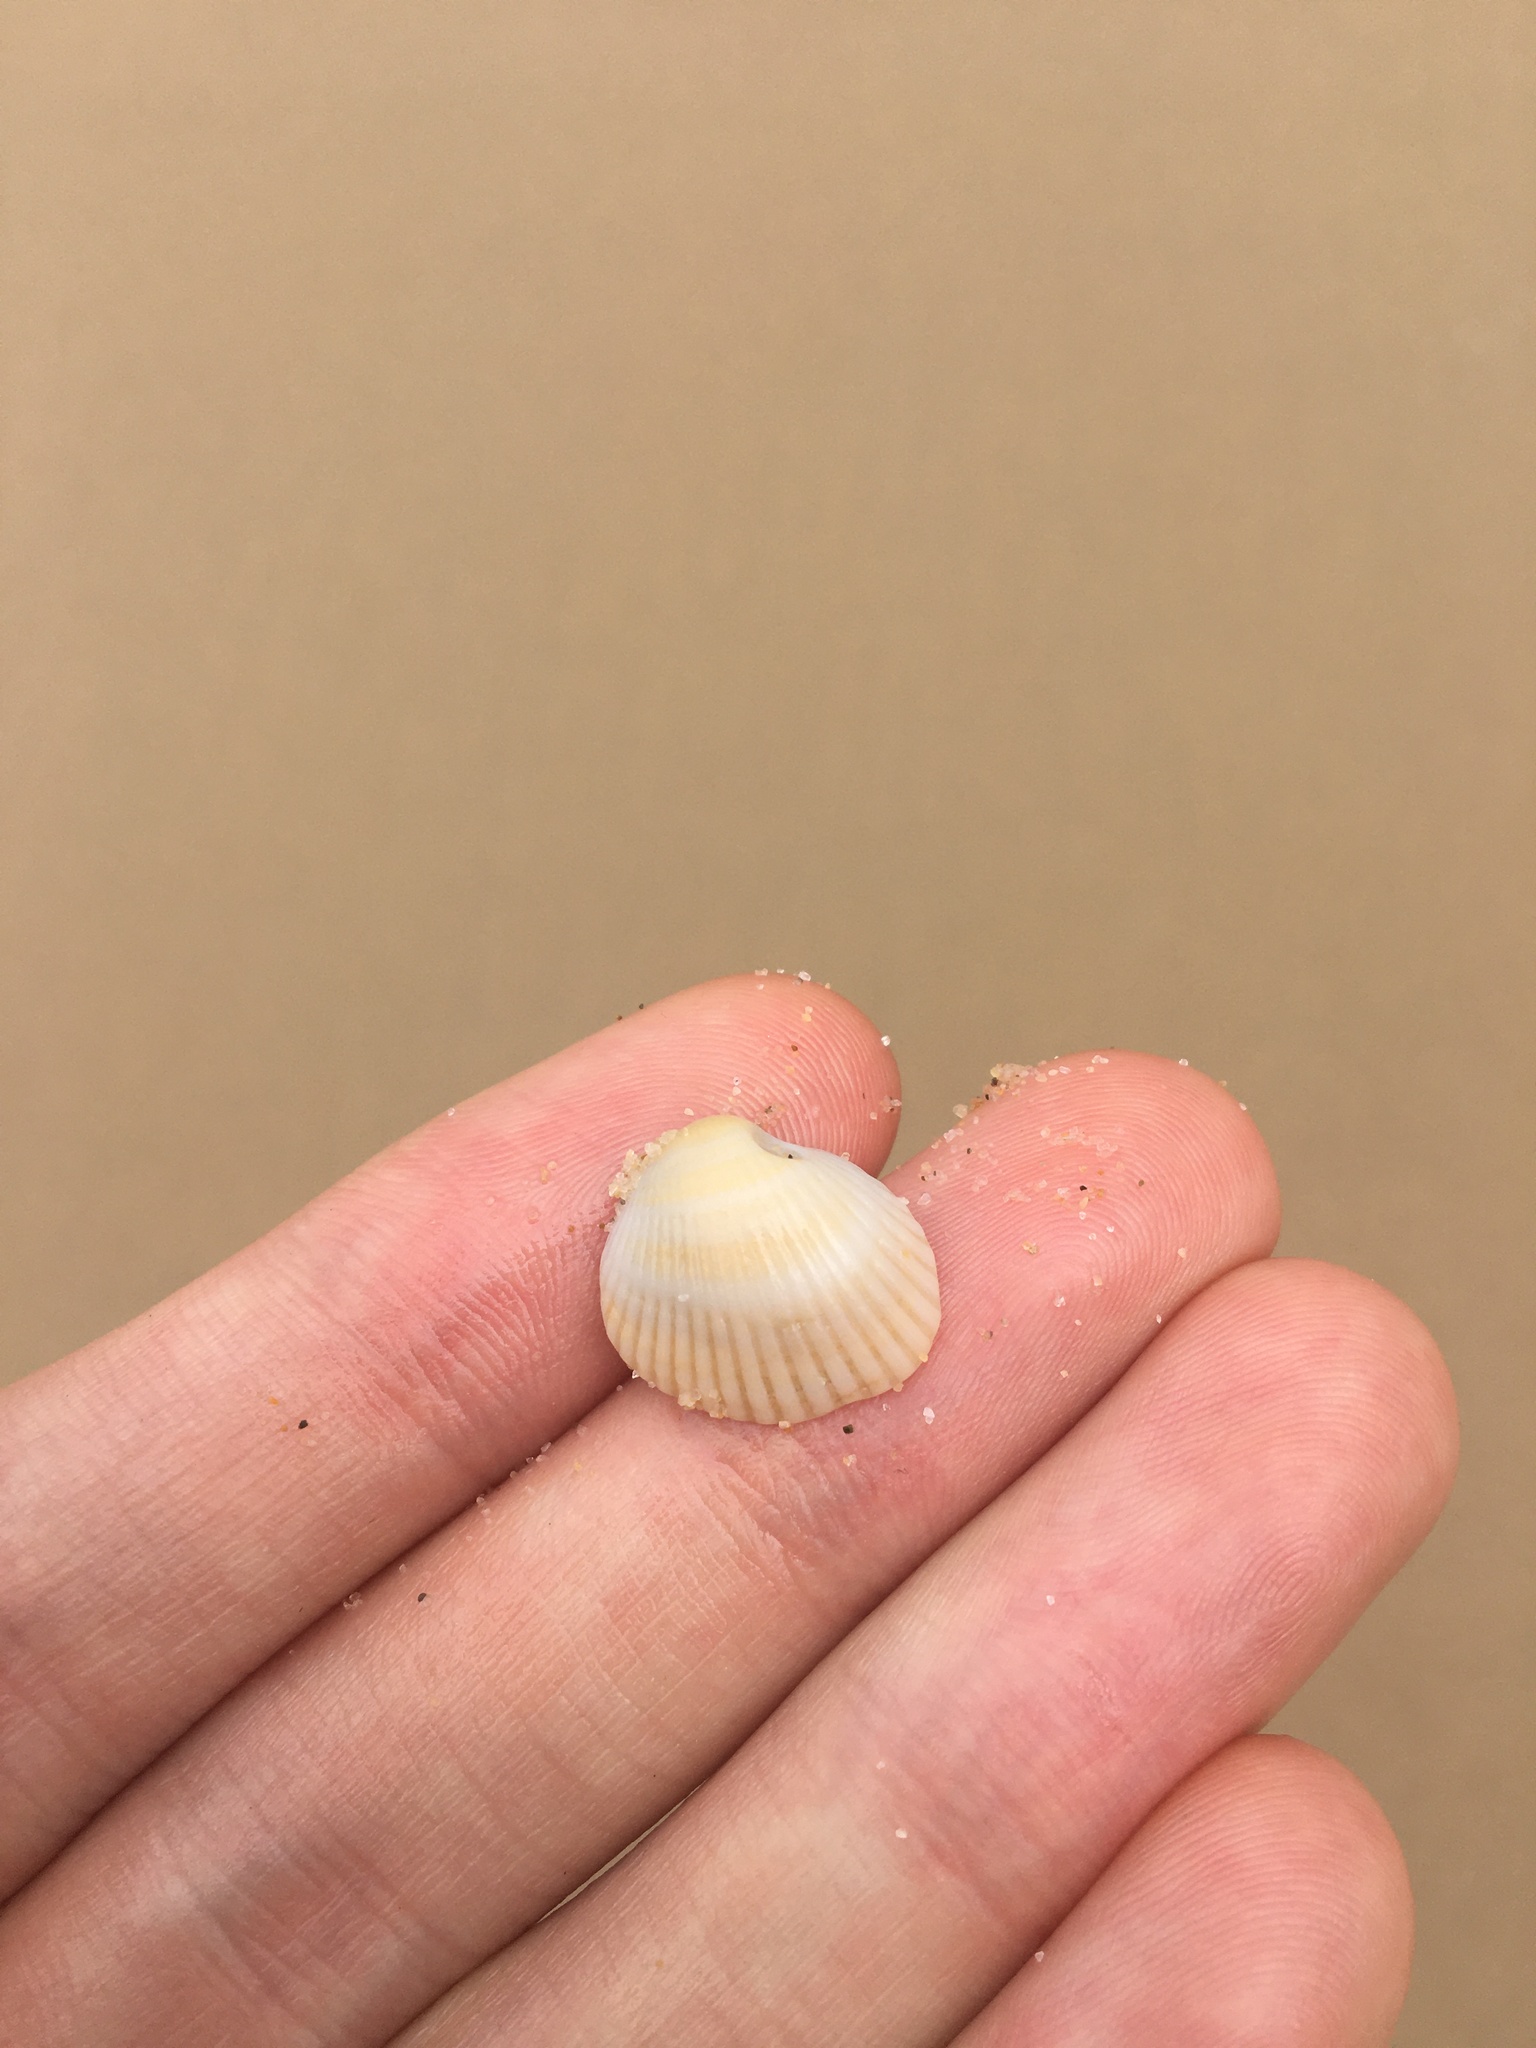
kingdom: Animalia
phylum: Mollusca
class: Bivalvia
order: Arcida
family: Arcidae
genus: Anadara
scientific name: Anadara trapezia
